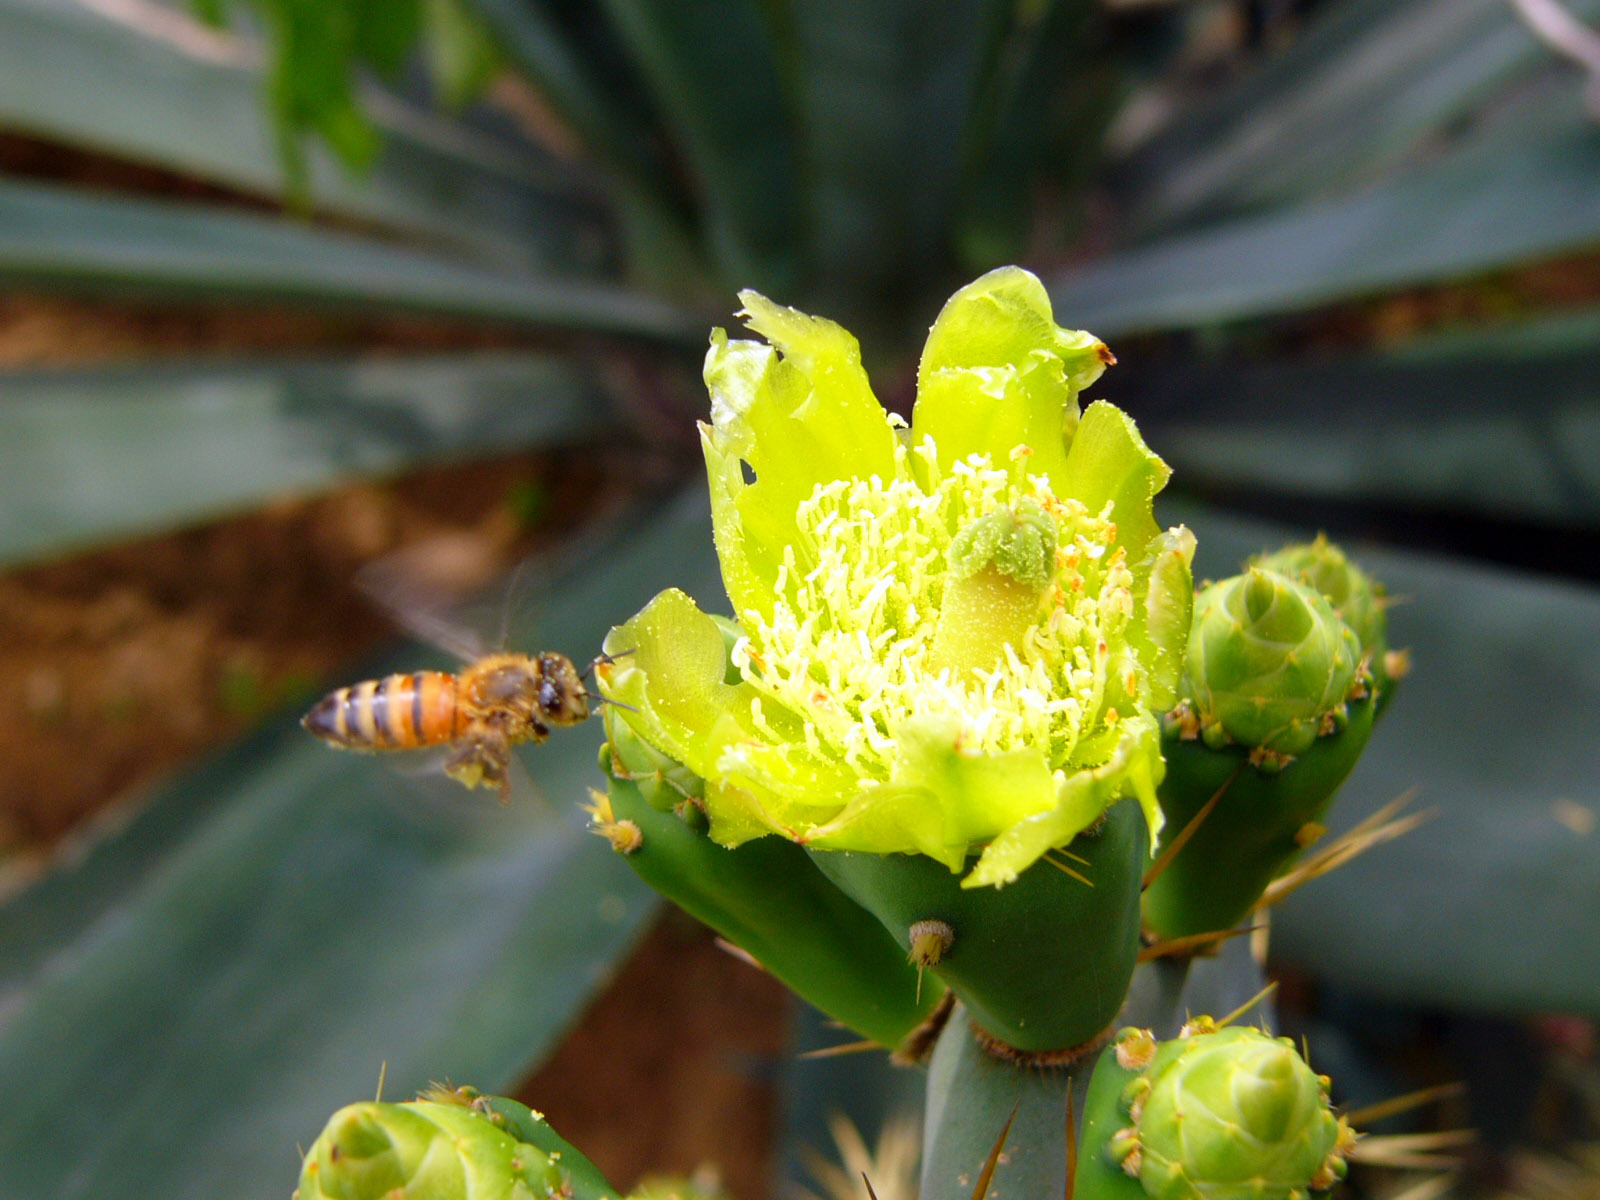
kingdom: Animalia
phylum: Arthropoda
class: Insecta
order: Hymenoptera
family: Apidae
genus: Apis
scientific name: Apis mellifera
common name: Honey bee
